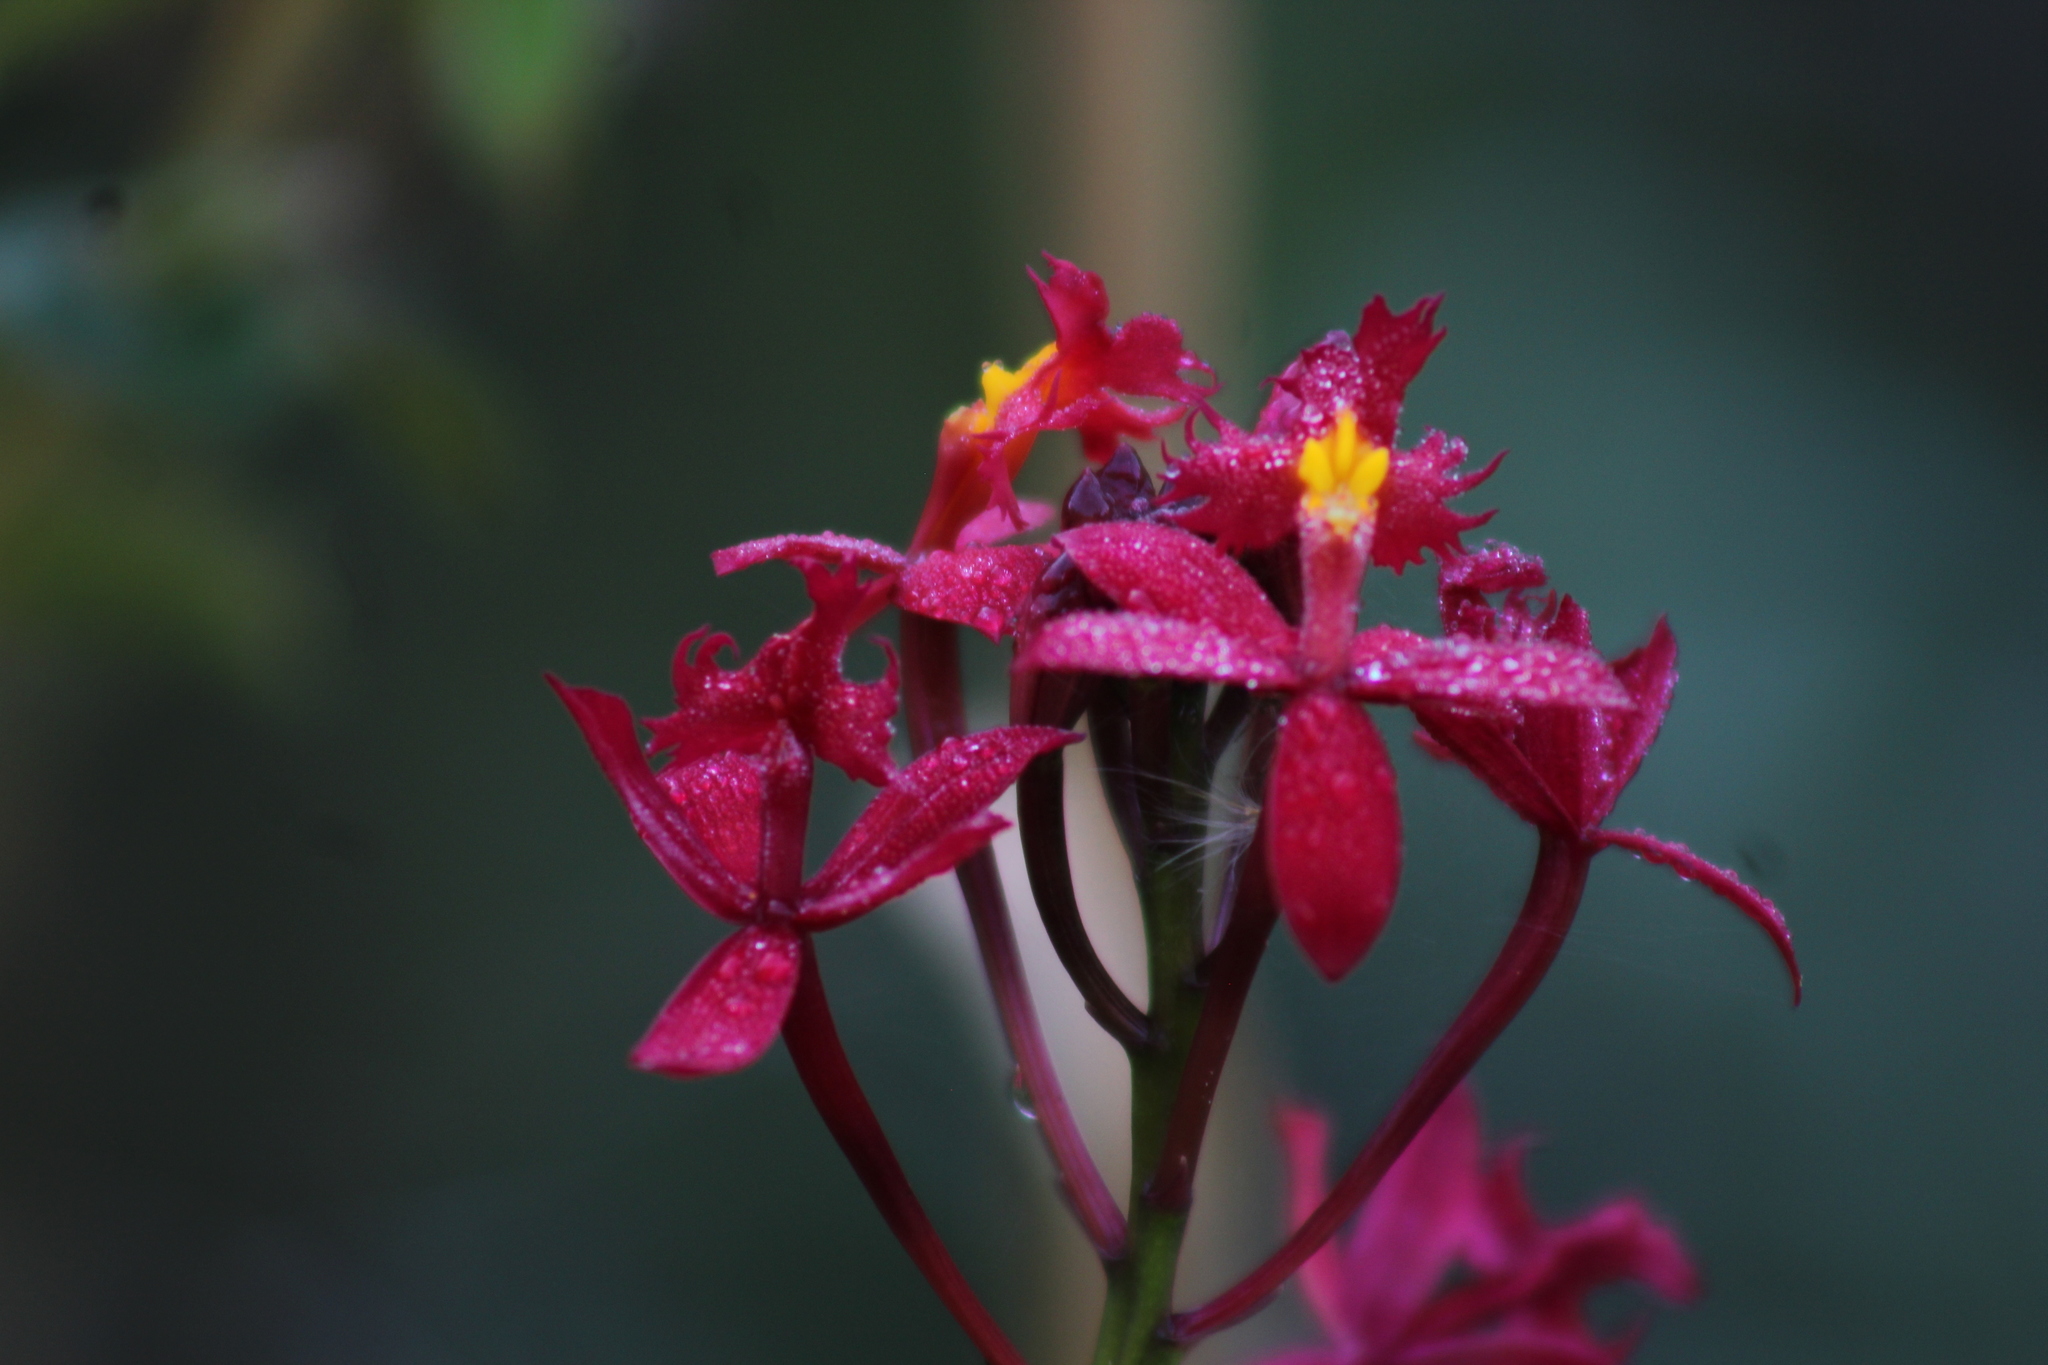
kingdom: Plantae
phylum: Tracheophyta
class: Liliopsida
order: Asparagales
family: Orchidaceae
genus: Epidendrum
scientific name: Epidendrum obrienianum
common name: O'brien's star orchid
